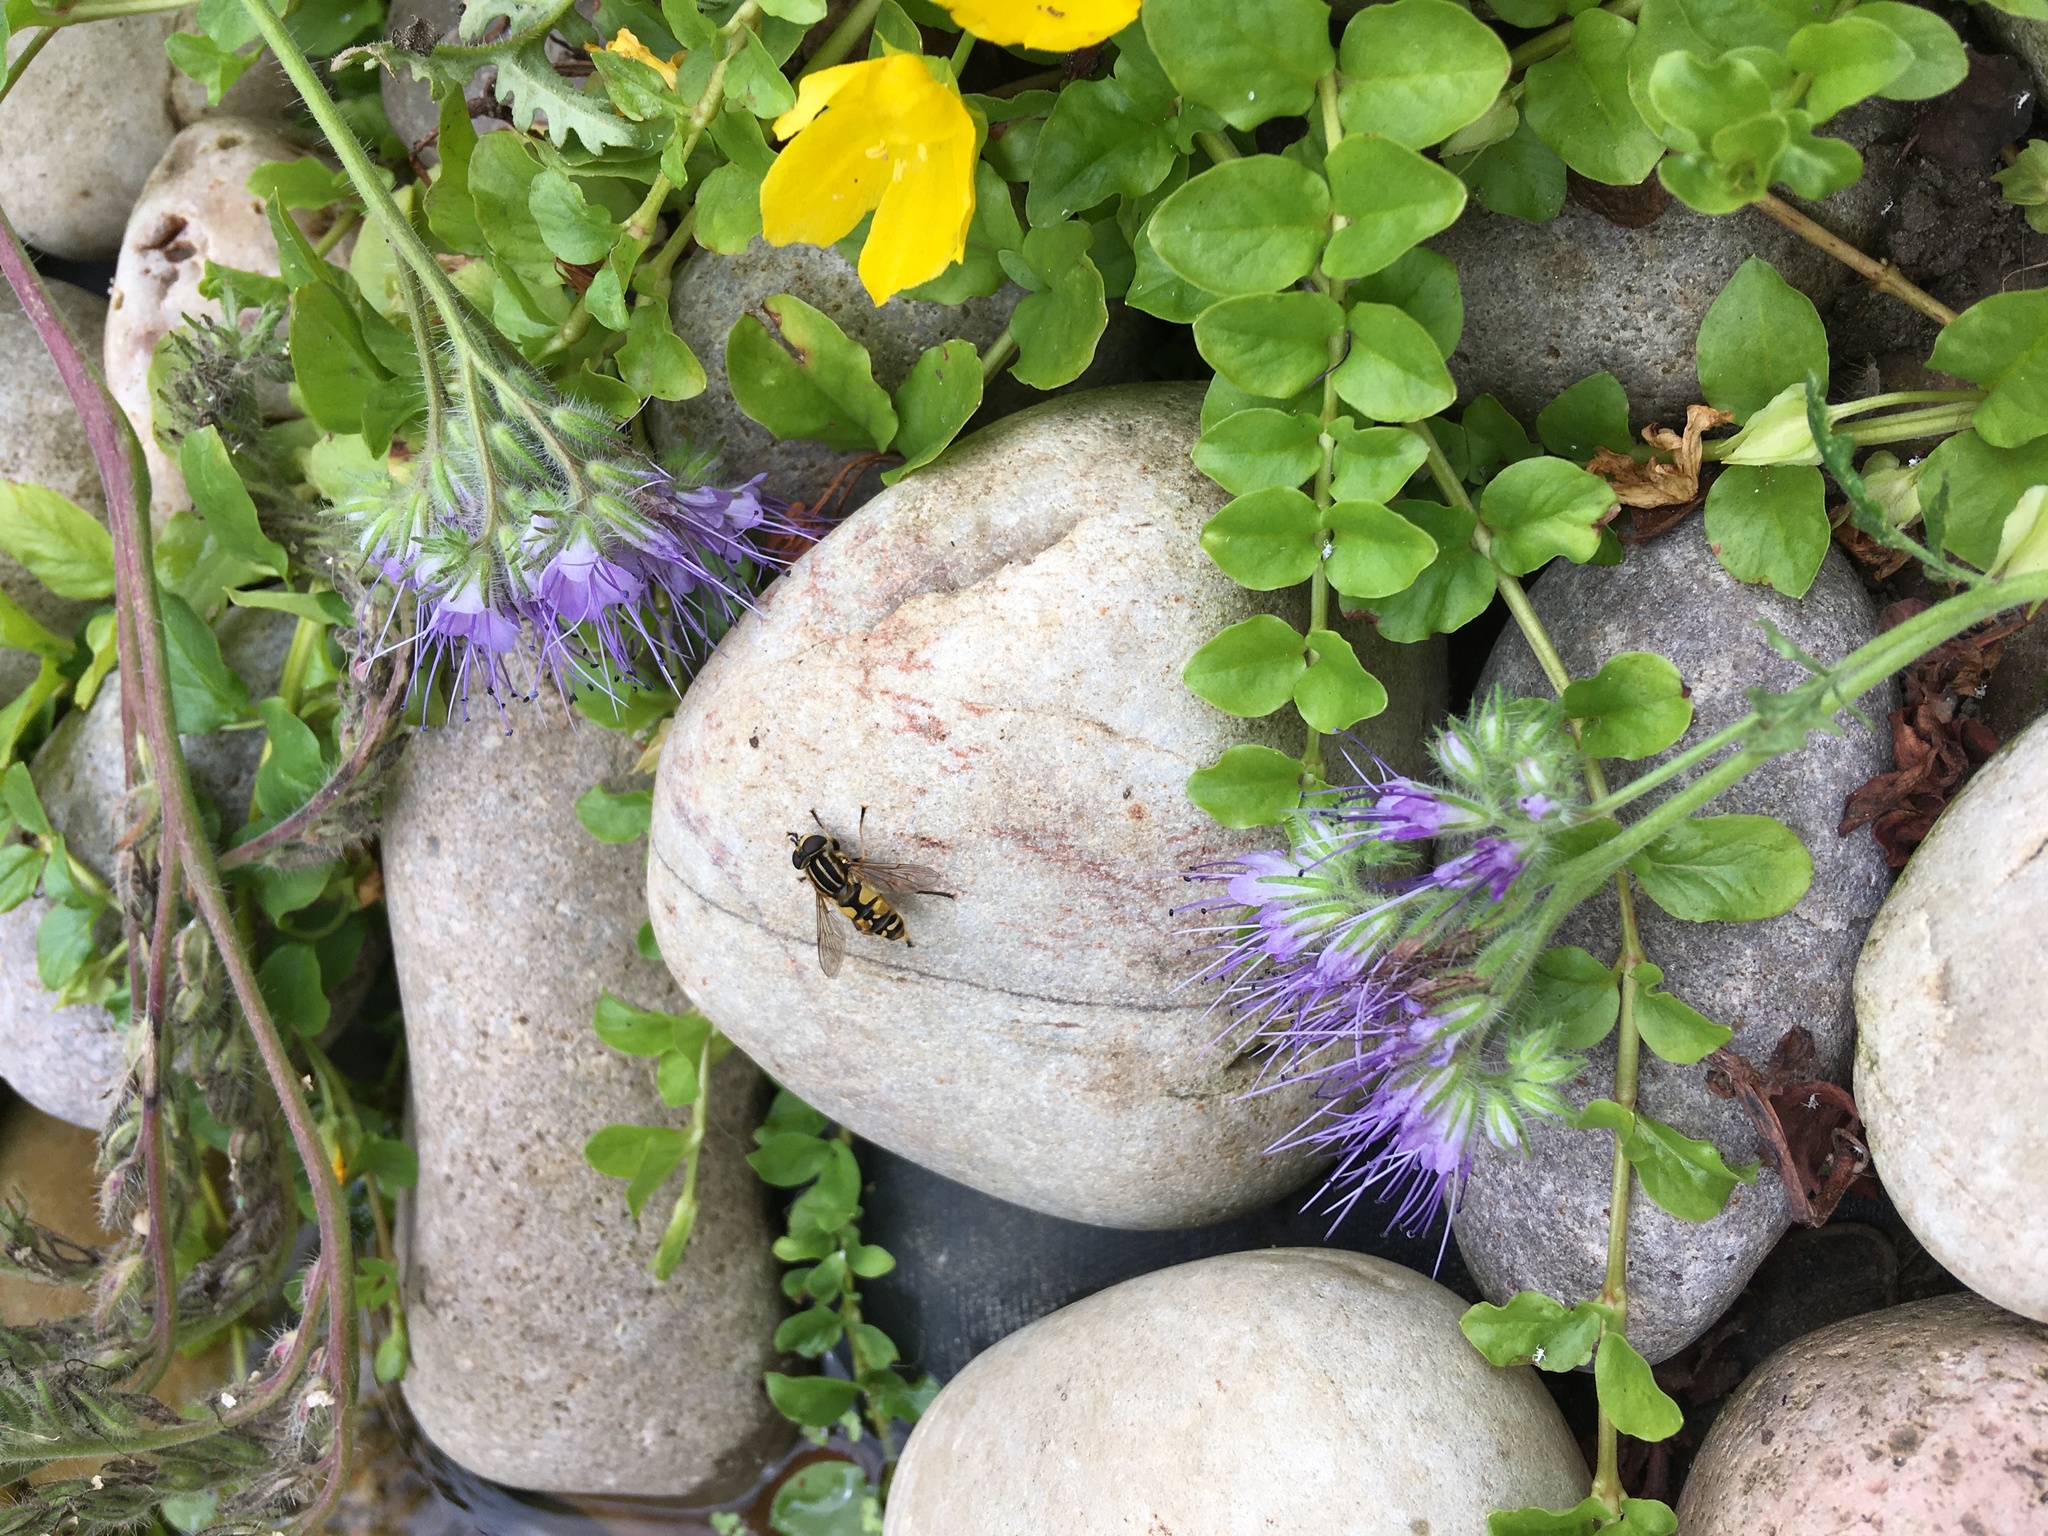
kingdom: Animalia
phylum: Arthropoda
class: Insecta
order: Diptera
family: Syrphidae
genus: Helophilus
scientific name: Helophilus pendulus
